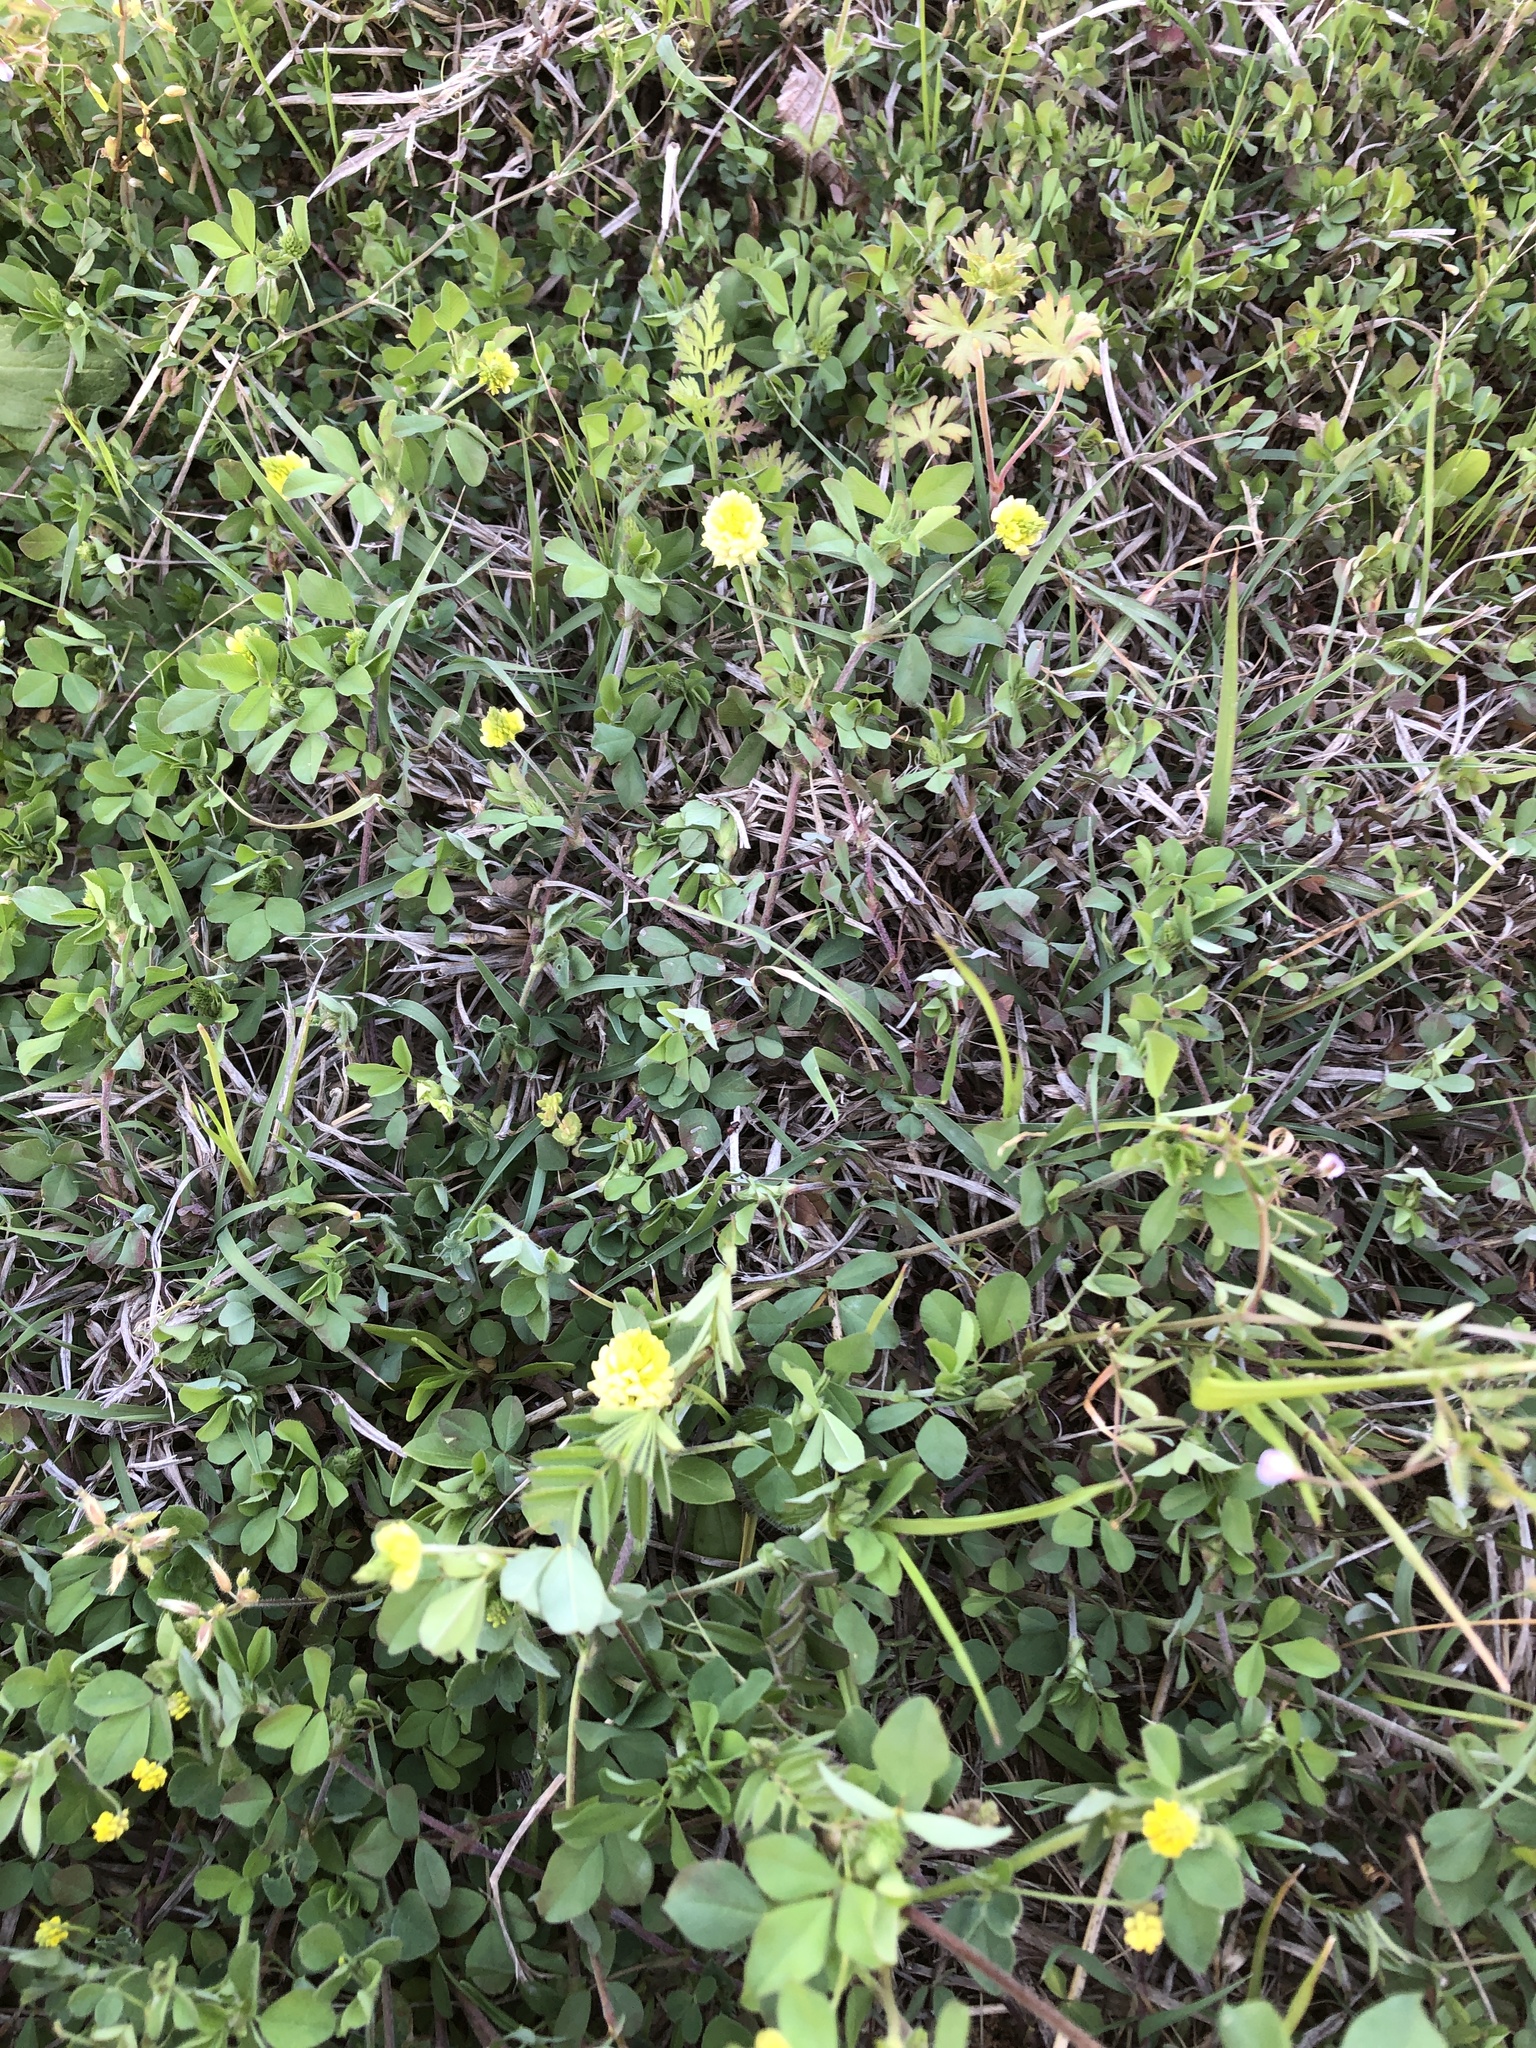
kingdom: Plantae
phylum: Tracheophyta
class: Magnoliopsida
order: Fabales
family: Fabaceae
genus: Trifolium
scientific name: Trifolium campestre
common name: Field clover
